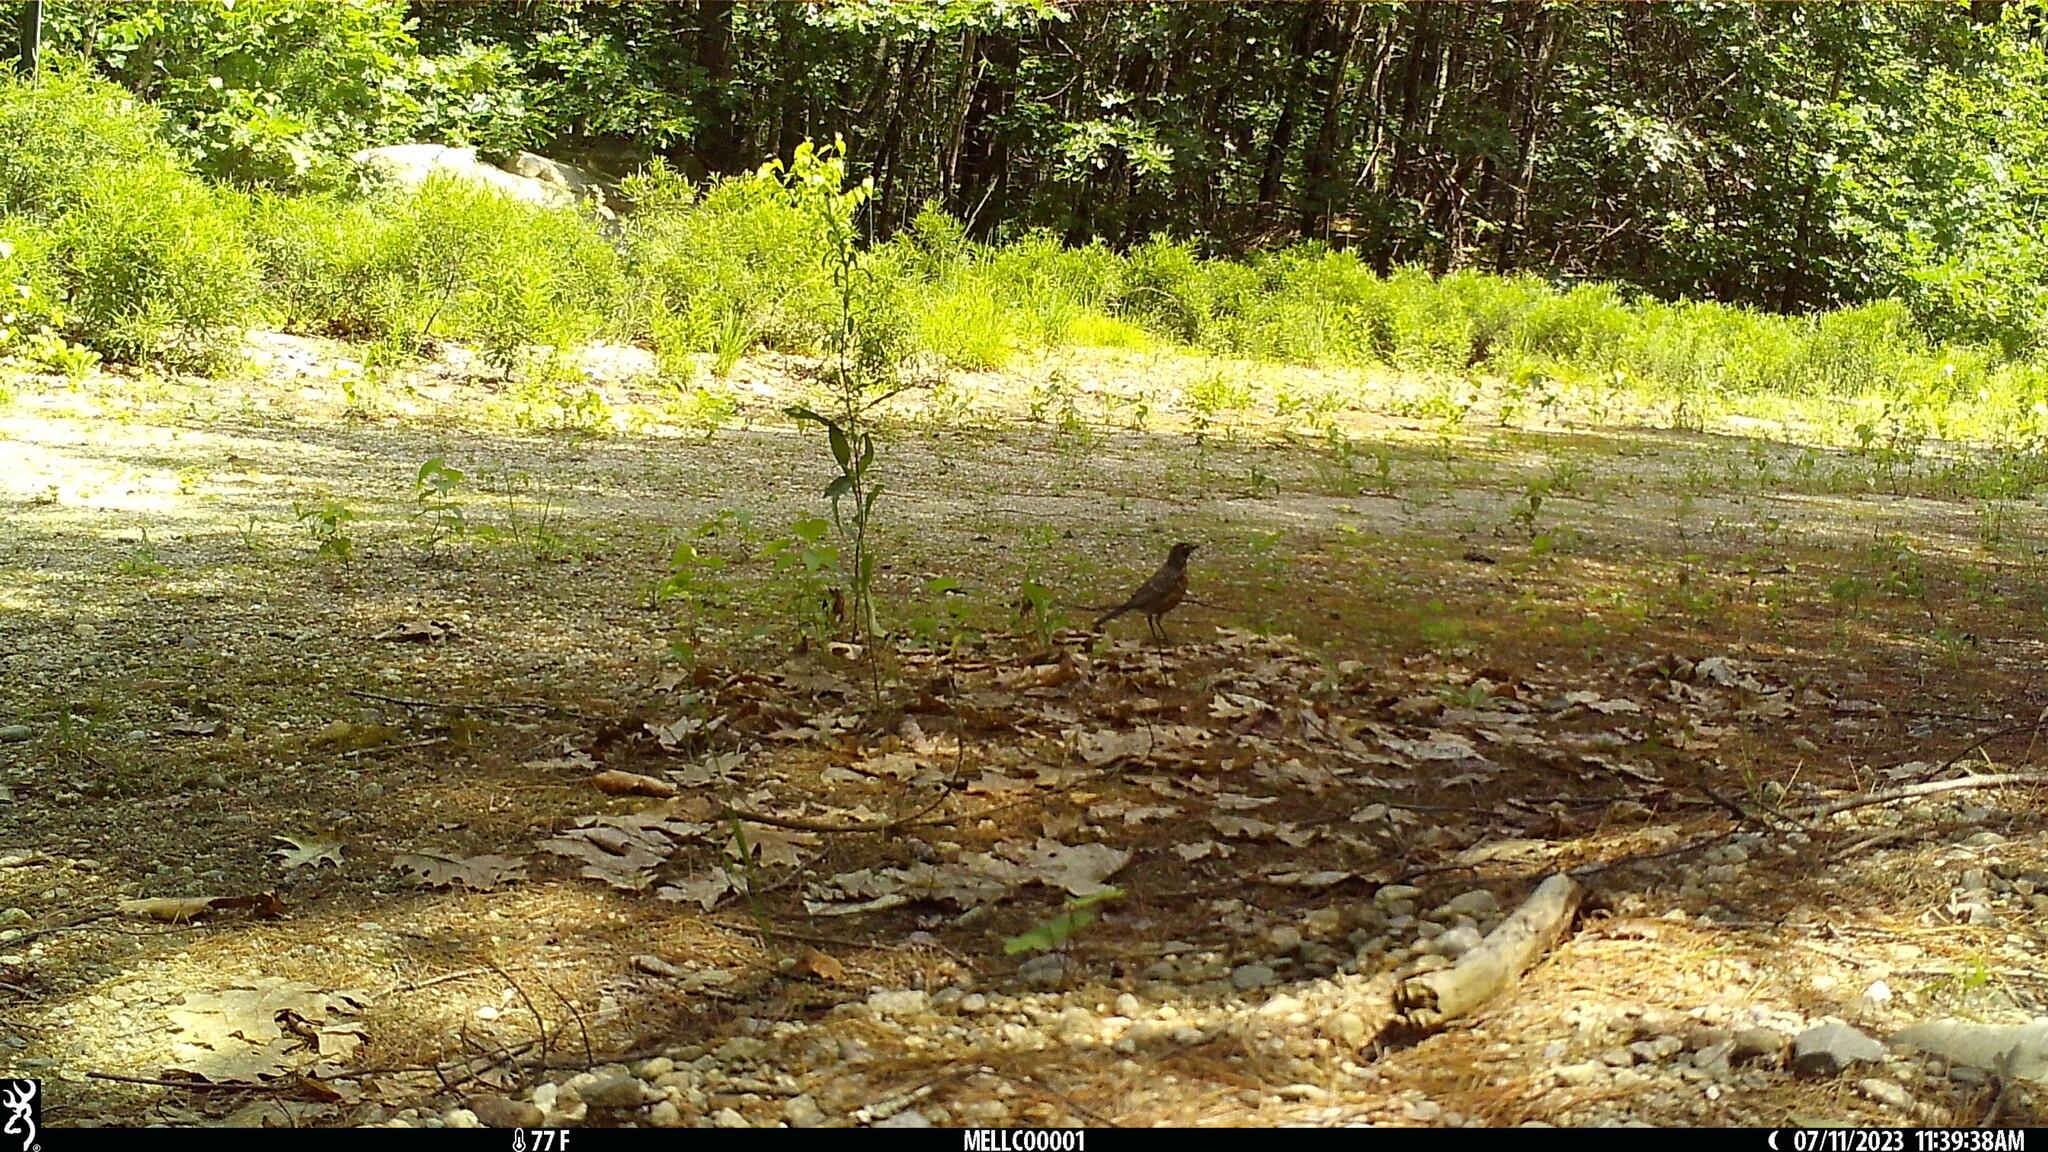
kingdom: Animalia
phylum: Chordata
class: Aves
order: Passeriformes
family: Turdidae
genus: Turdus
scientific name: Turdus migratorius
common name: American robin
